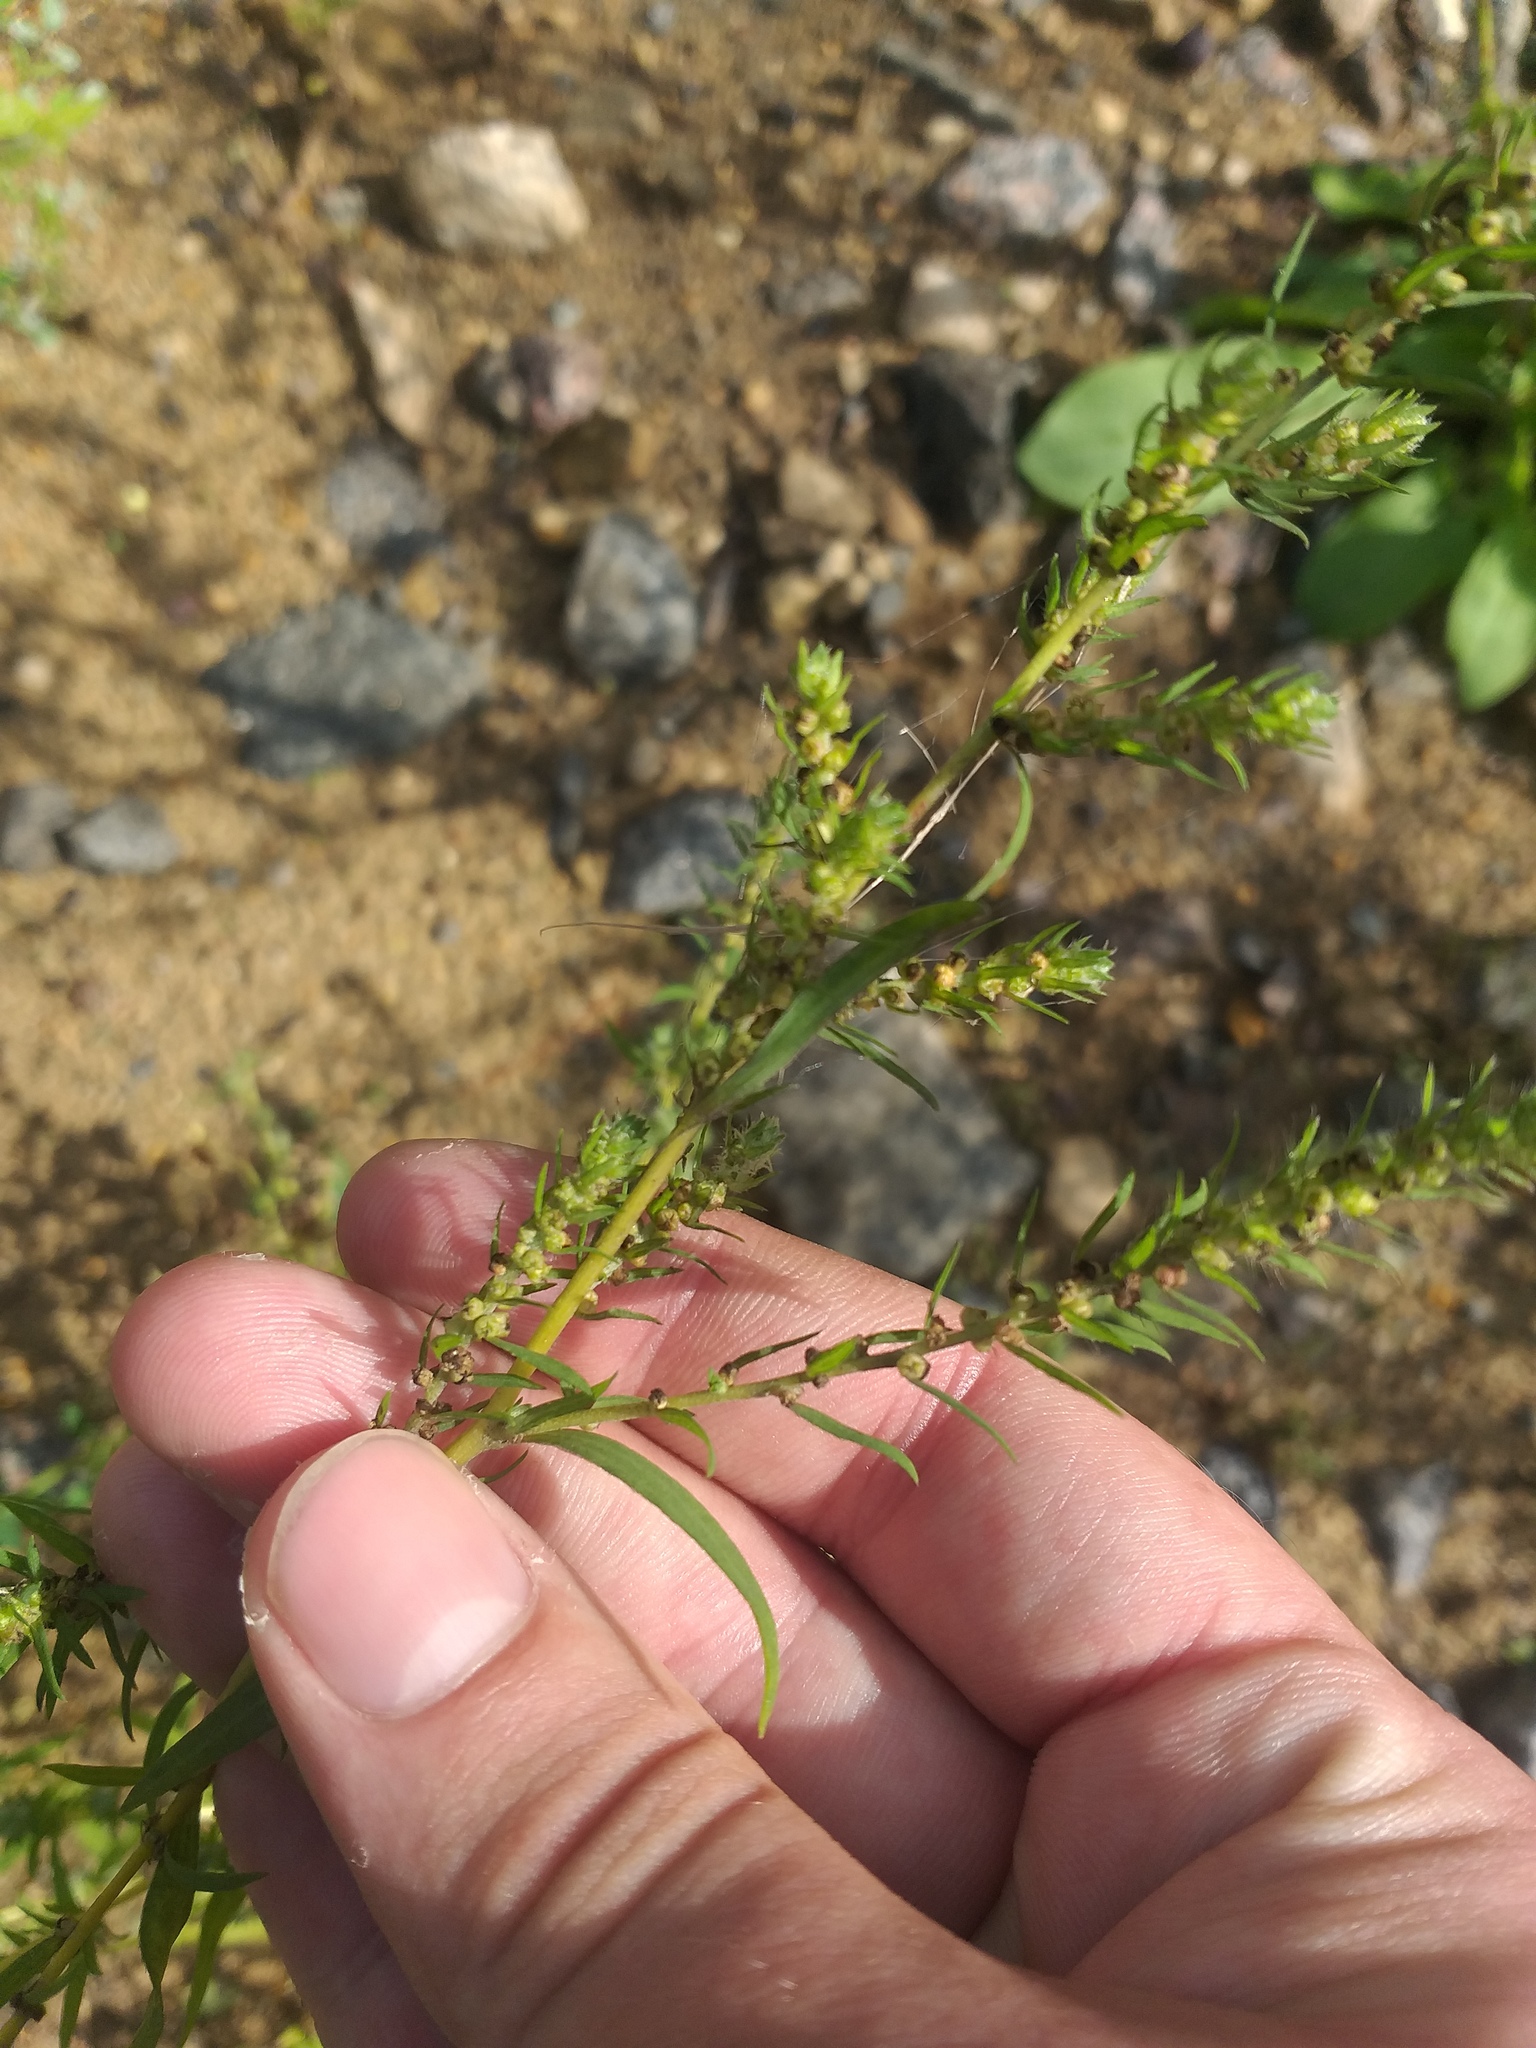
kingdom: Plantae
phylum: Tracheophyta
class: Magnoliopsida
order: Caryophyllales
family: Amaranthaceae
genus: Bassia
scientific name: Bassia scoparia
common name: Belvedere
